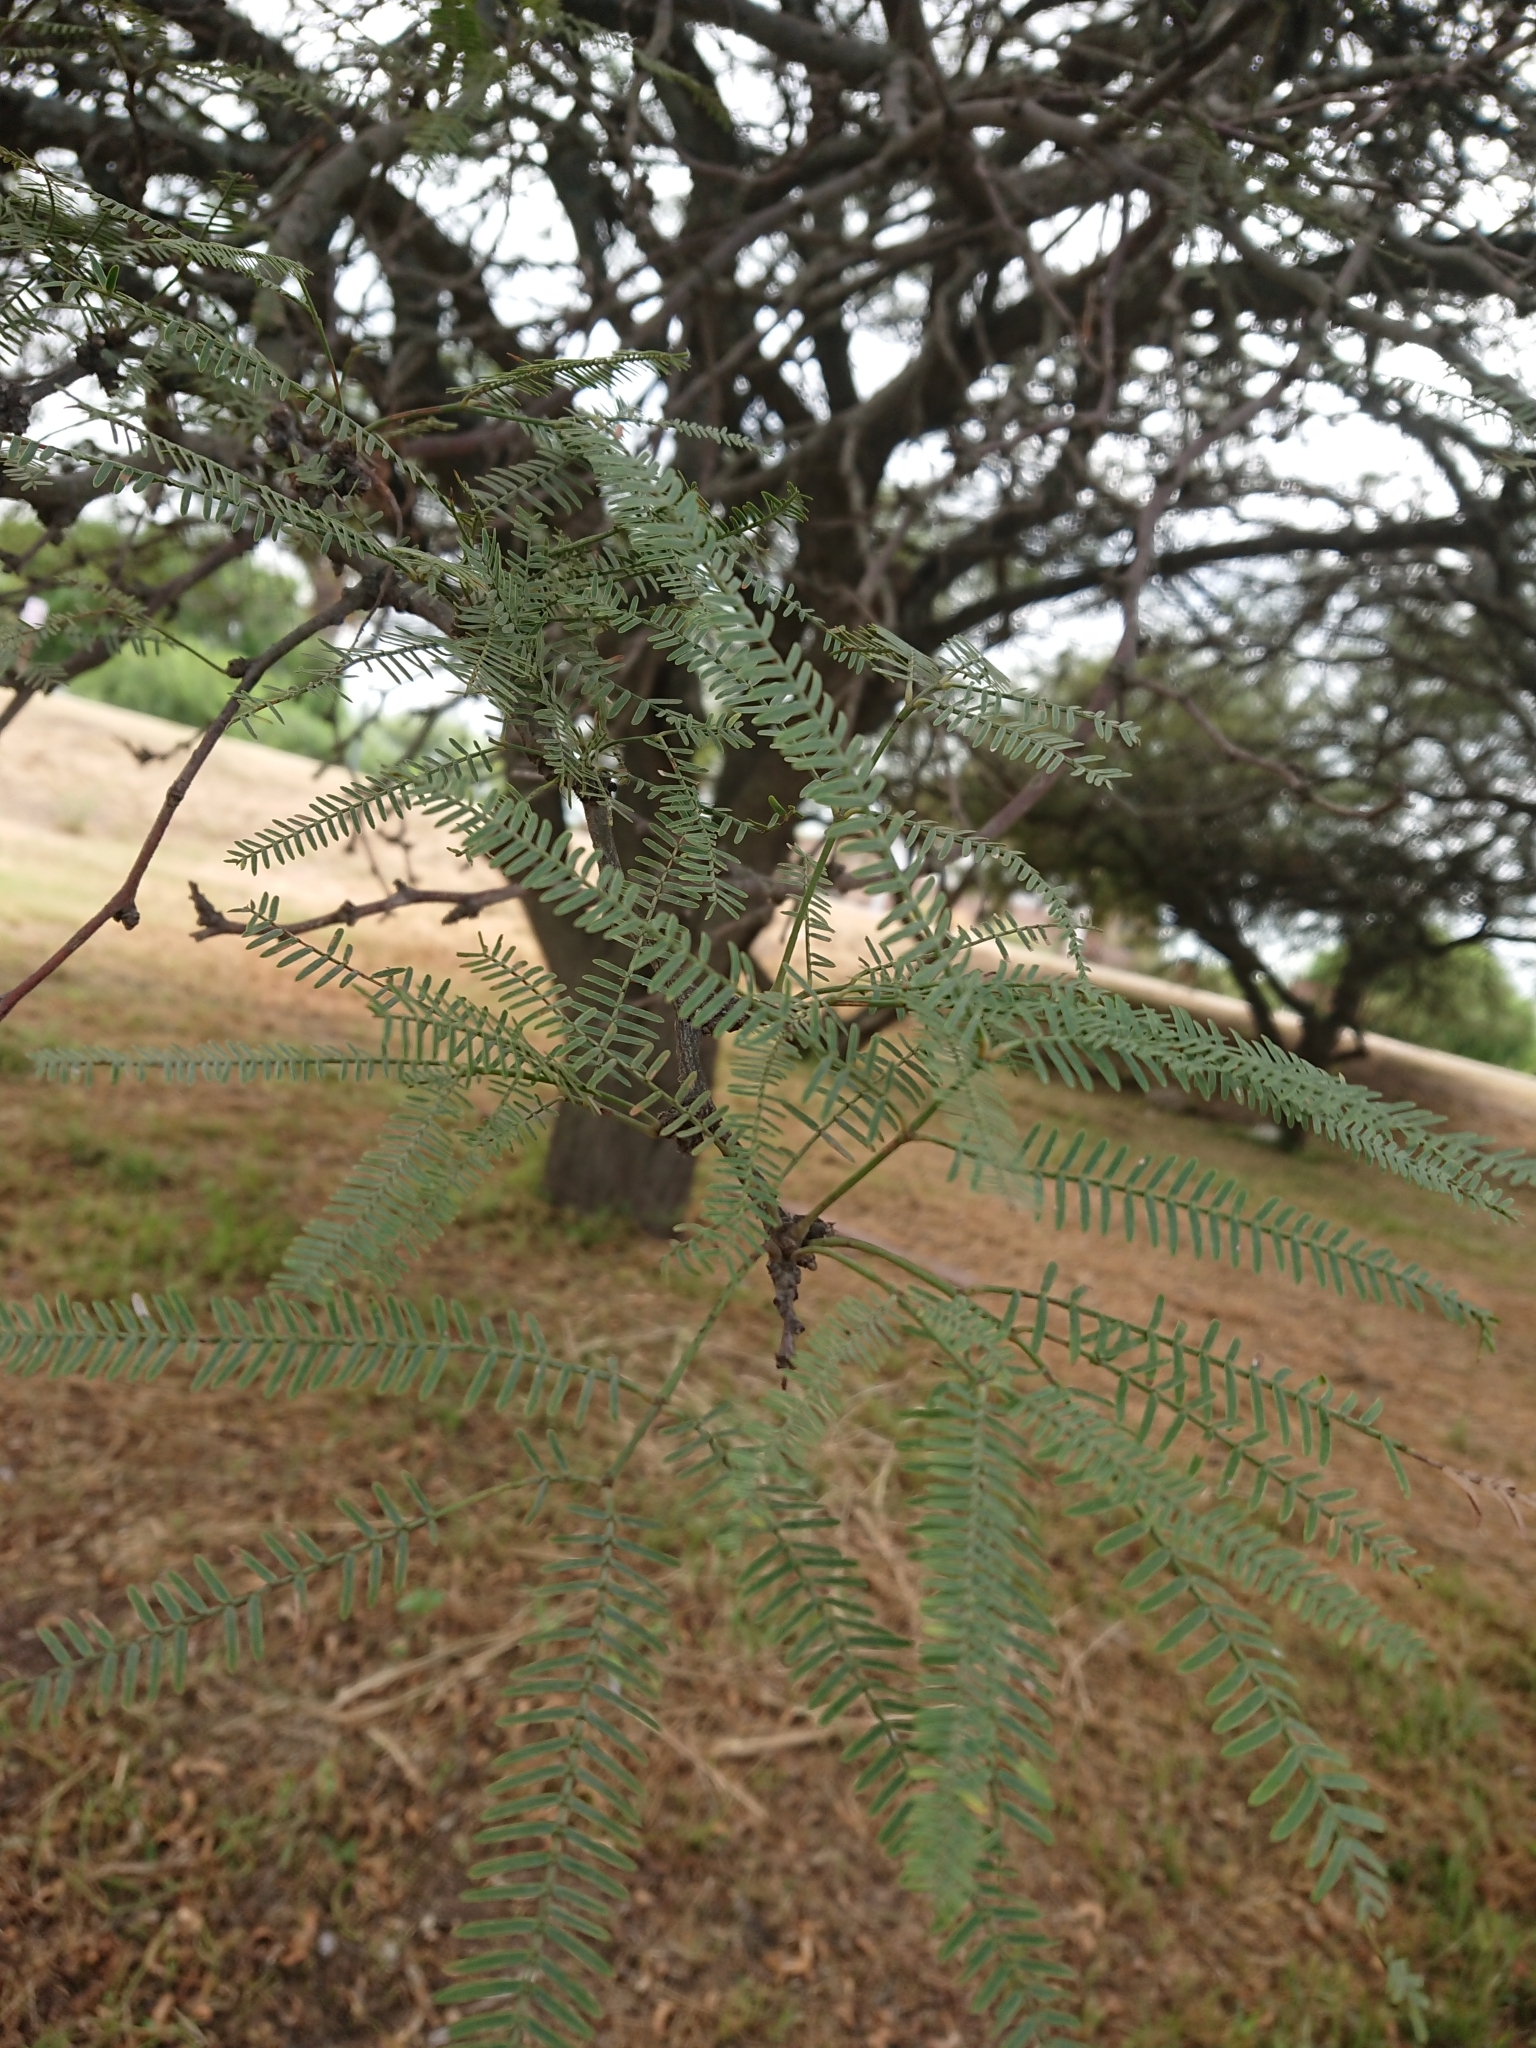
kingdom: Plantae
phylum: Tracheophyta
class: Magnoliopsida
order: Fabales
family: Fabaceae
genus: Prosopis
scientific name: Prosopis alba
